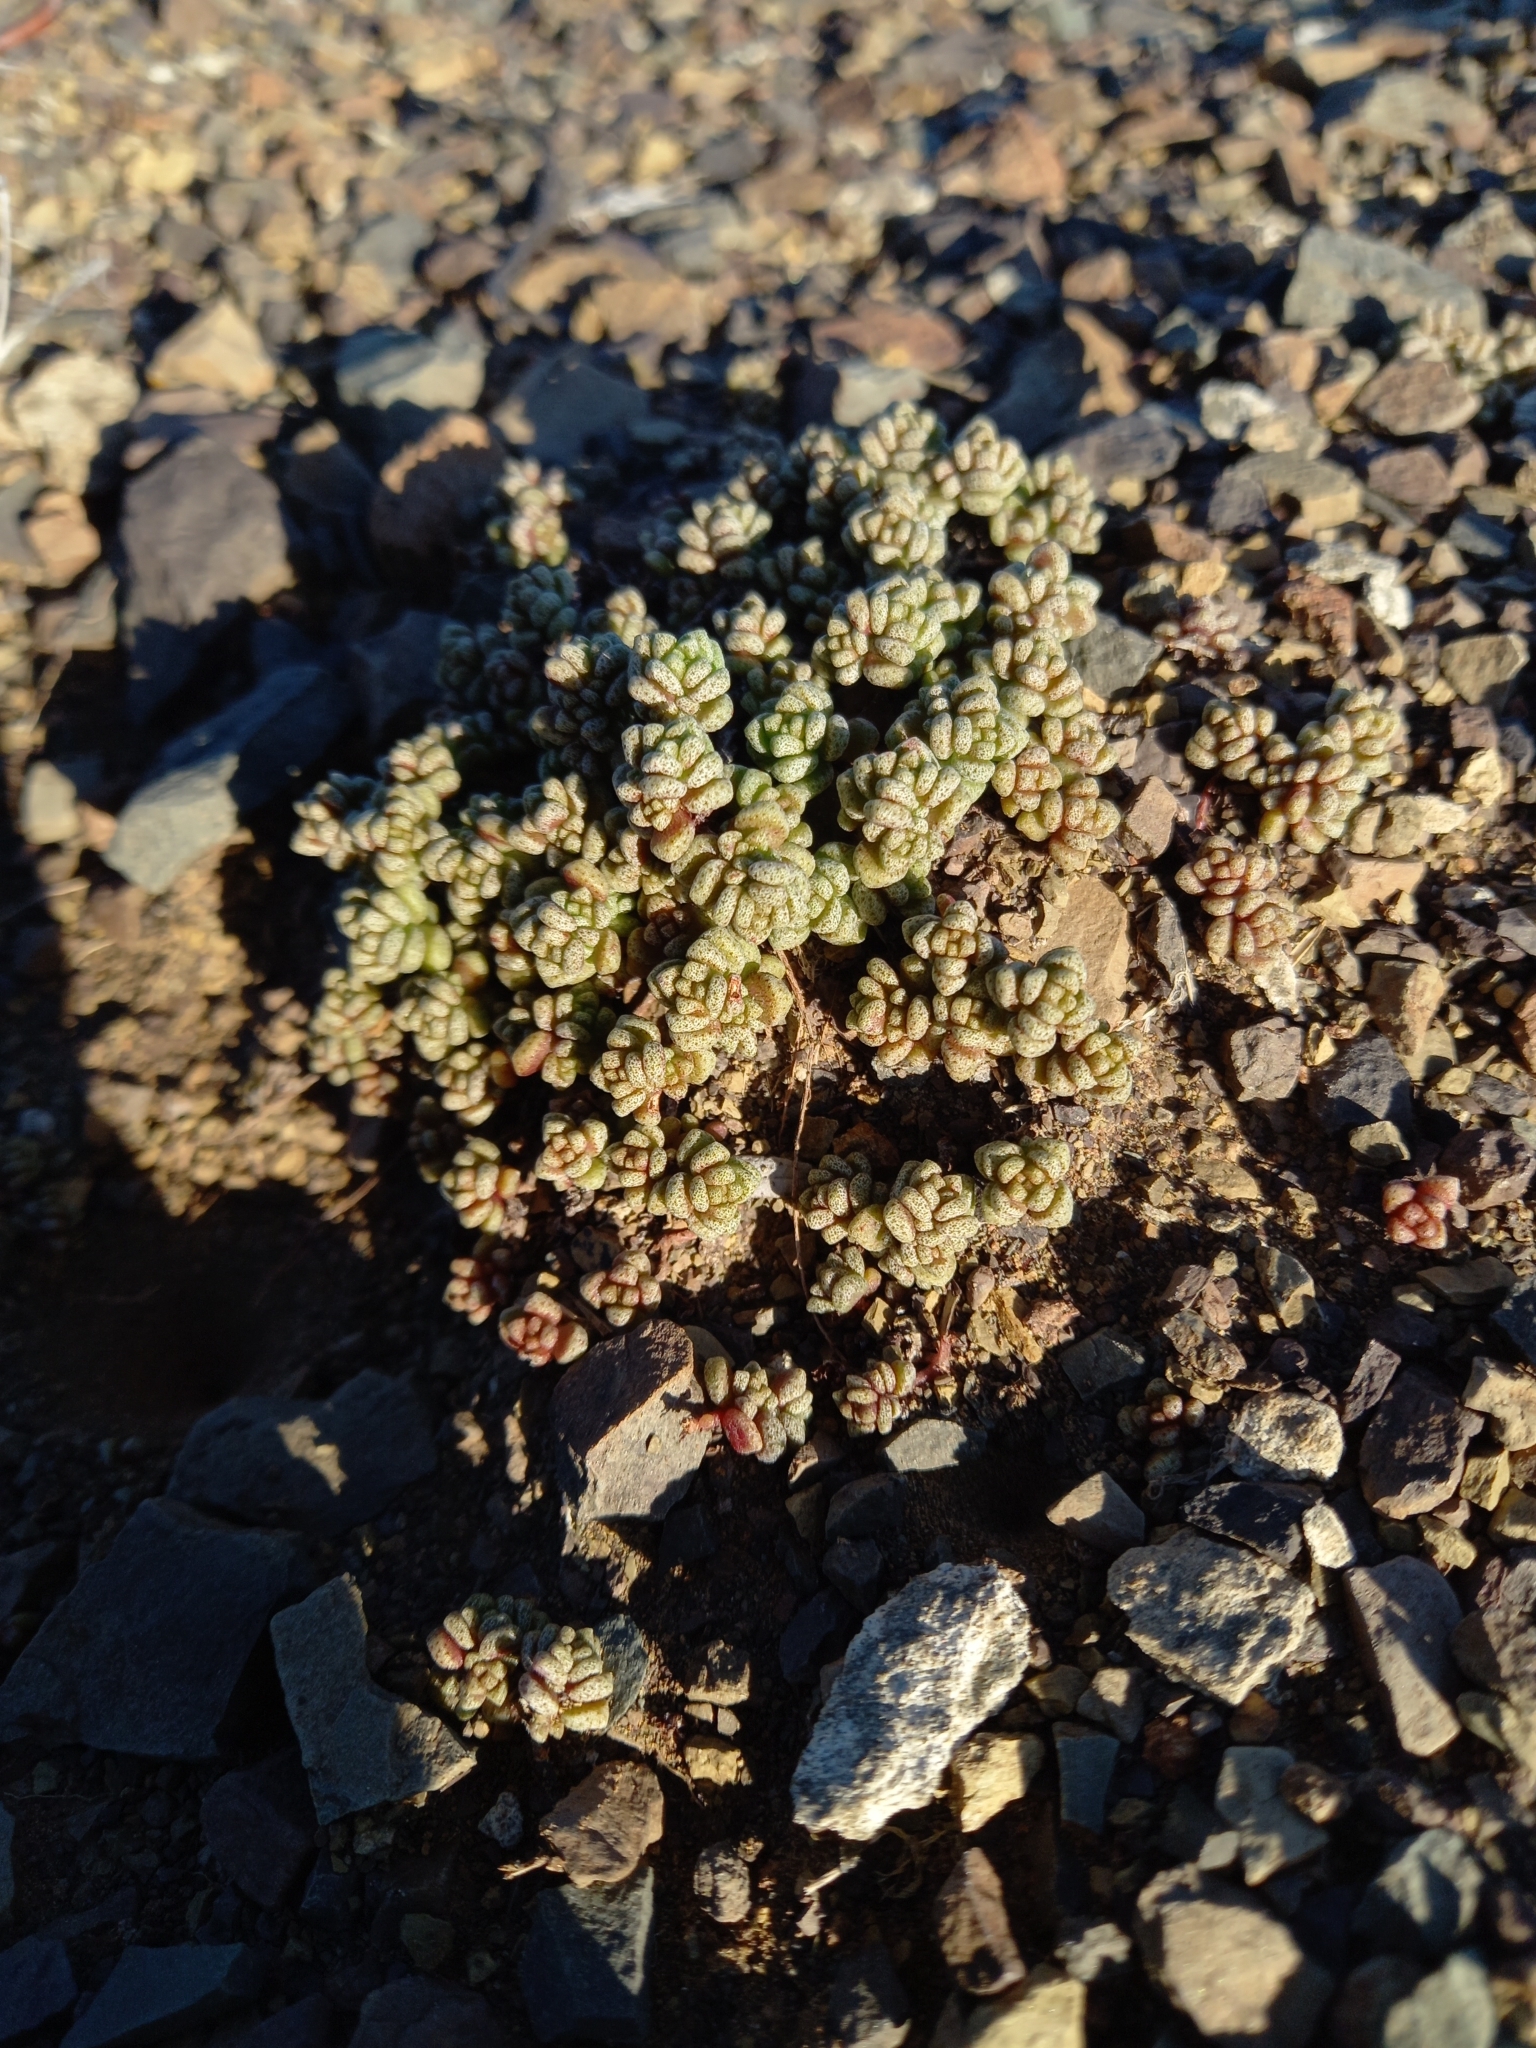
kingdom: Plantae
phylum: Tracheophyta
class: Magnoliopsida
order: Saxifragales
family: Crassulaceae
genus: Crassula
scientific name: Crassula corallina
